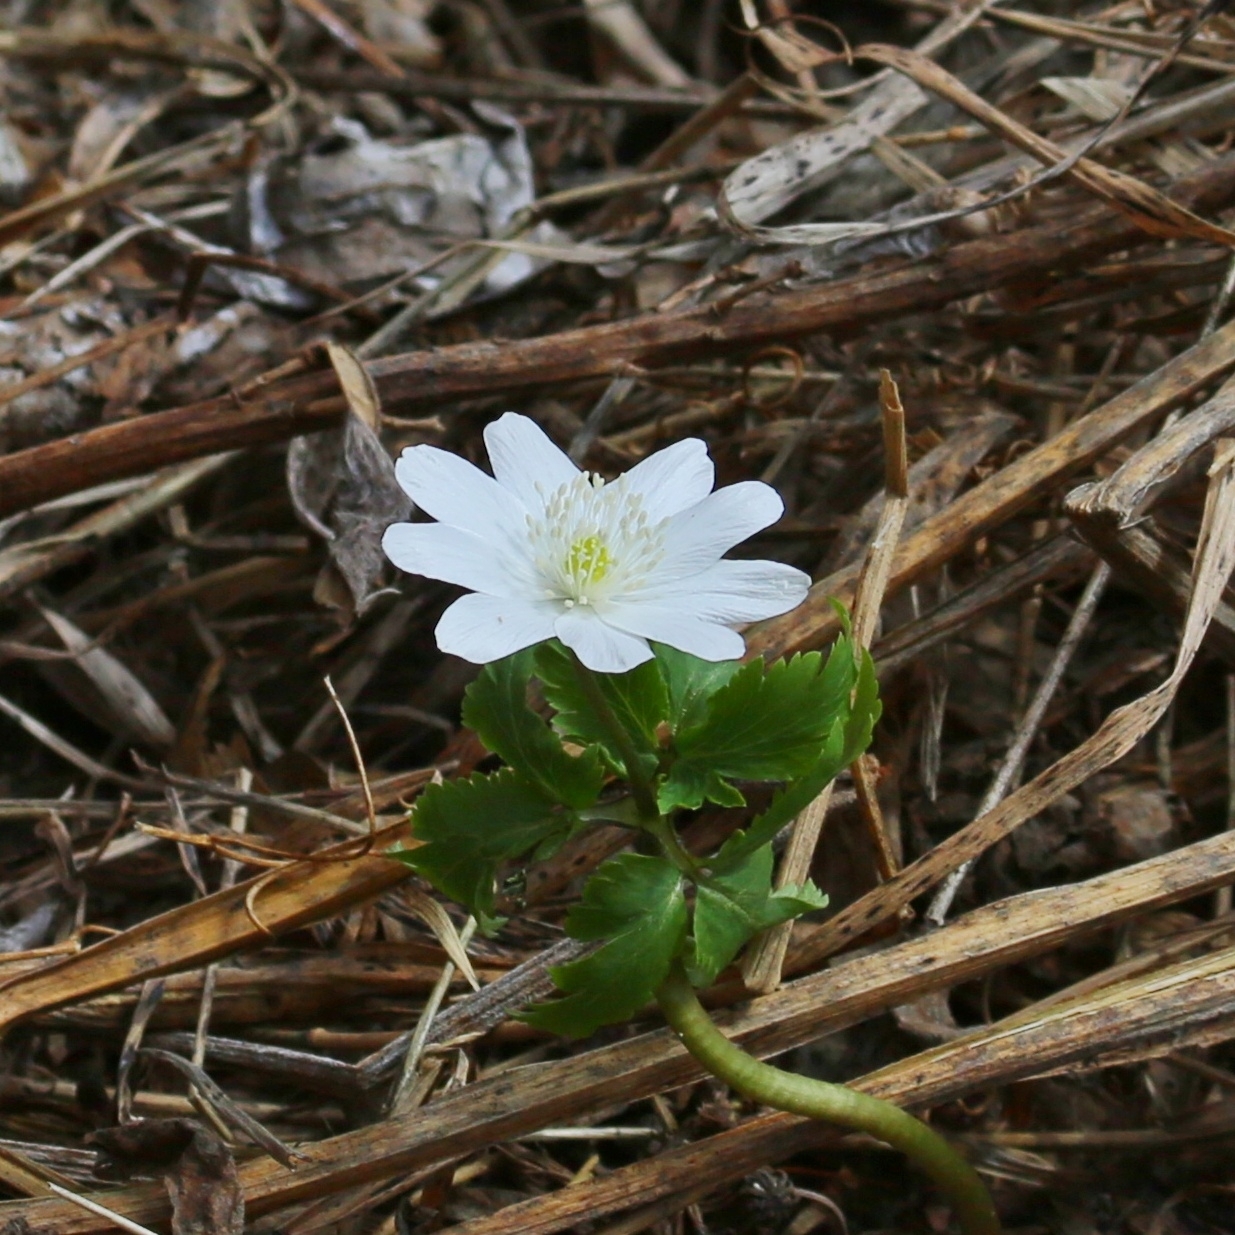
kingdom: Plantae
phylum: Tracheophyta
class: Magnoliopsida
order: Ranunculales
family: Ranunculaceae
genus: Anemone
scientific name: Anemone altaica
